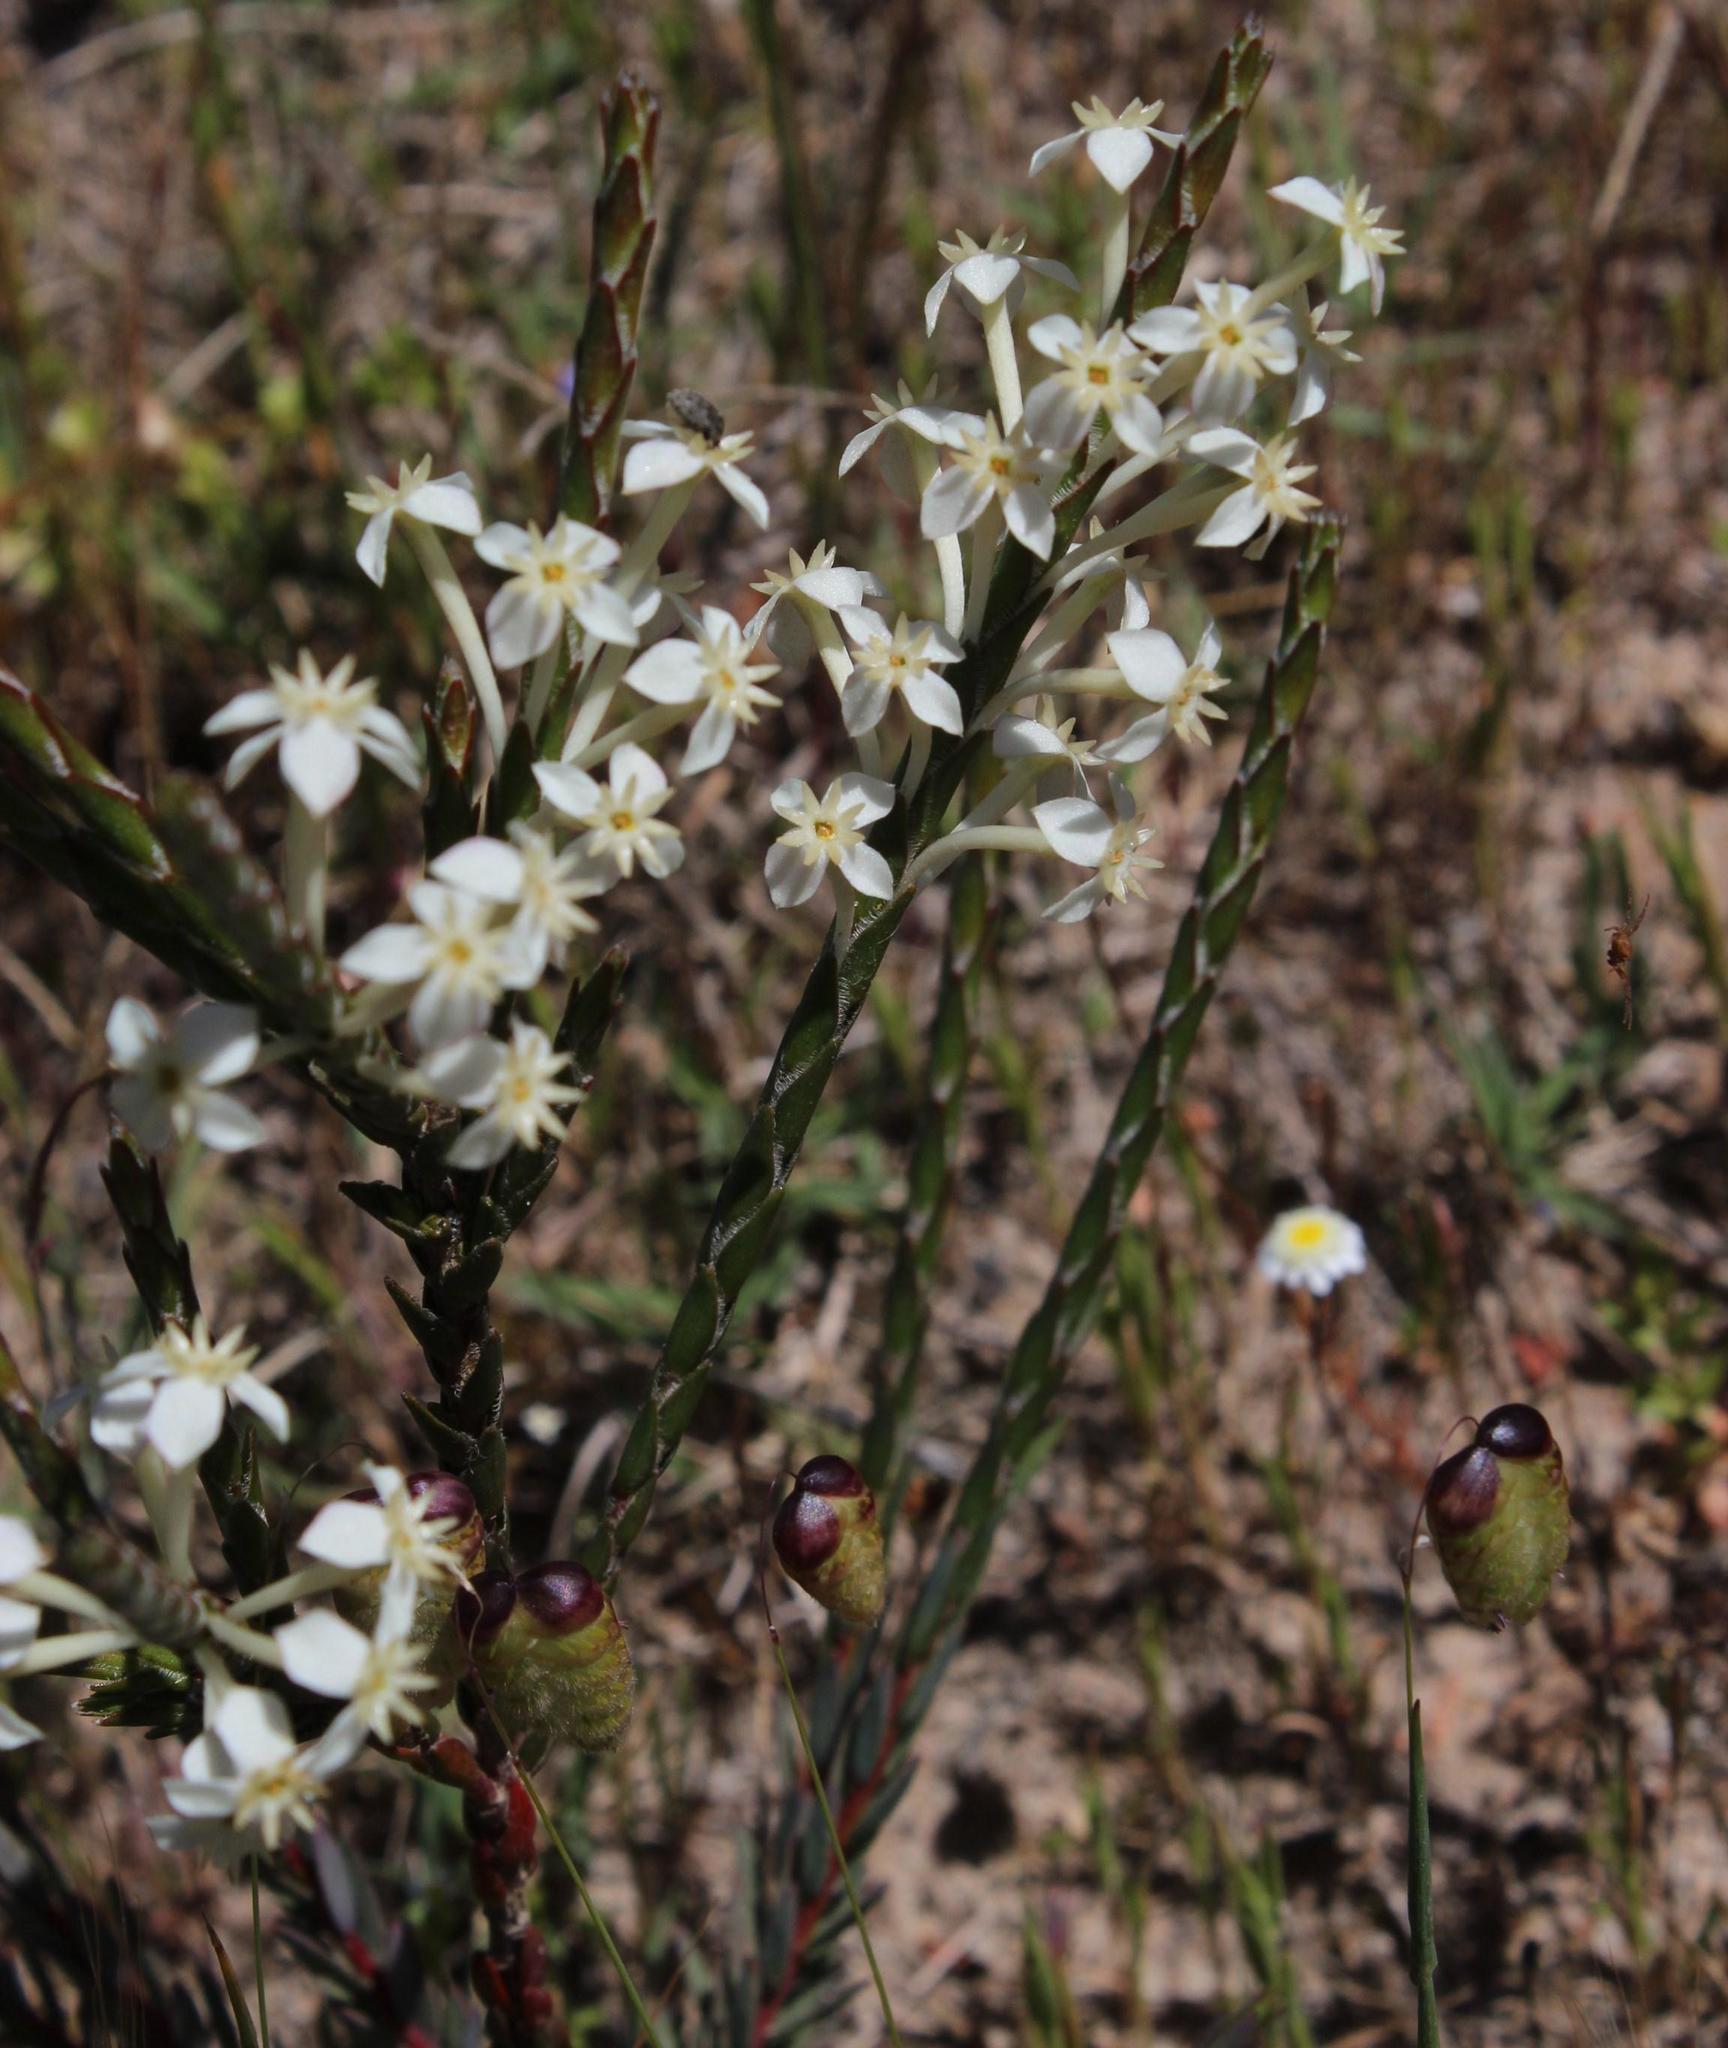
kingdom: Plantae
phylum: Tracheophyta
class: Magnoliopsida
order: Malvales
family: Thymelaeaceae
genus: Struthiola
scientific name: Struthiola ciliata
